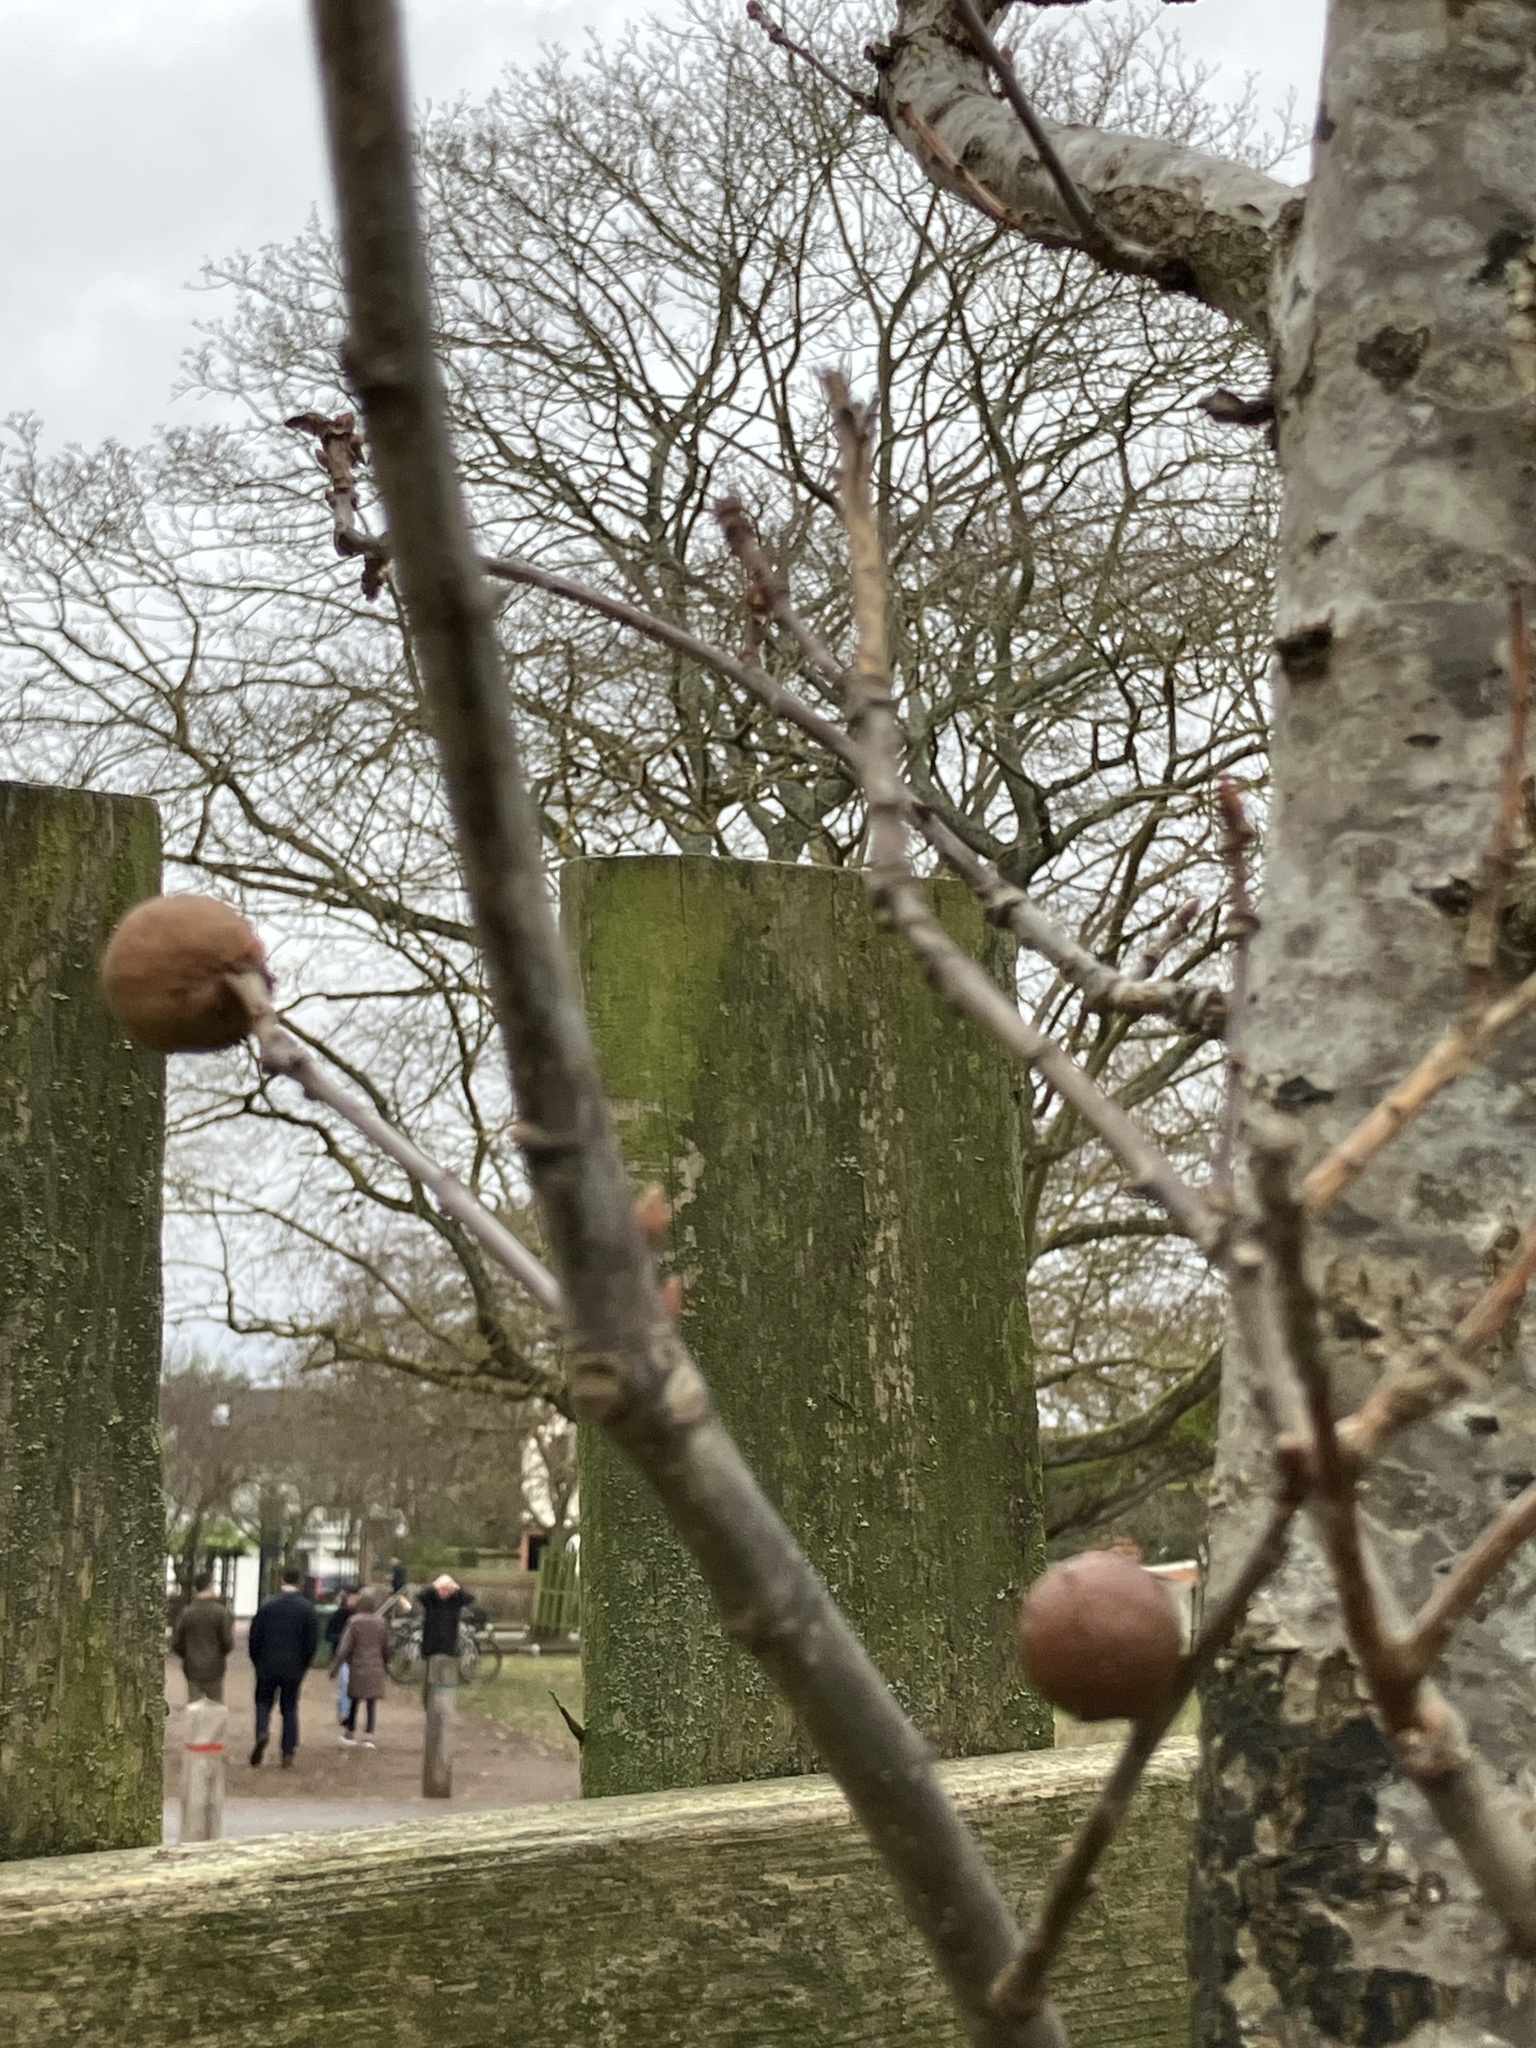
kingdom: Animalia
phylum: Arthropoda
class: Insecta
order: Hymenoptera
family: Cynipidae
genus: Andricus
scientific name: Andricus kollari
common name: Marble gall
